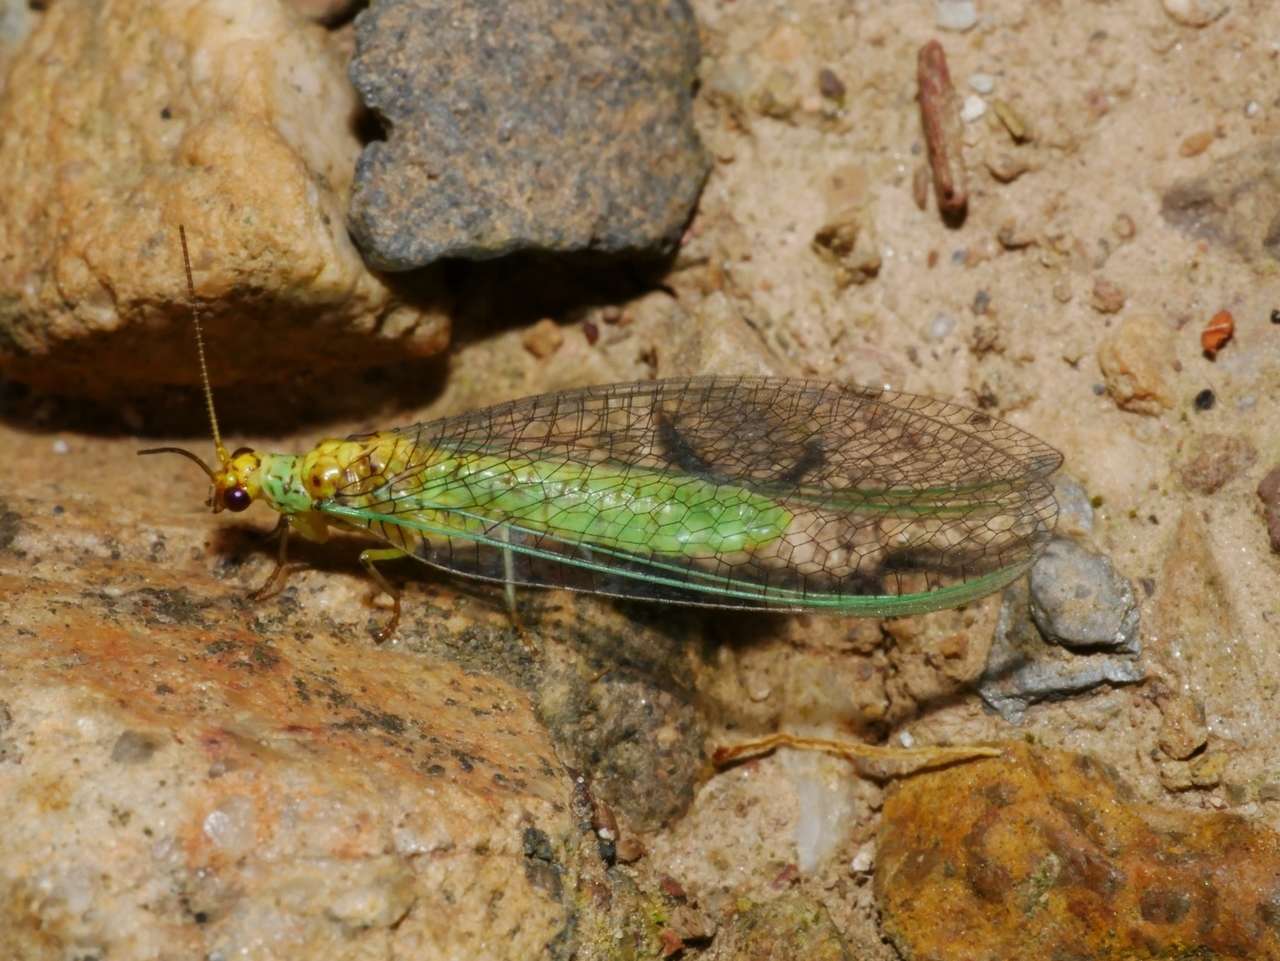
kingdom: Animalia
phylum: Arthropoda
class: Insecta
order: Neuroptera
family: Chrysopidae
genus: Dictyochrysa
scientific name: Dictyochrysa peterseni
